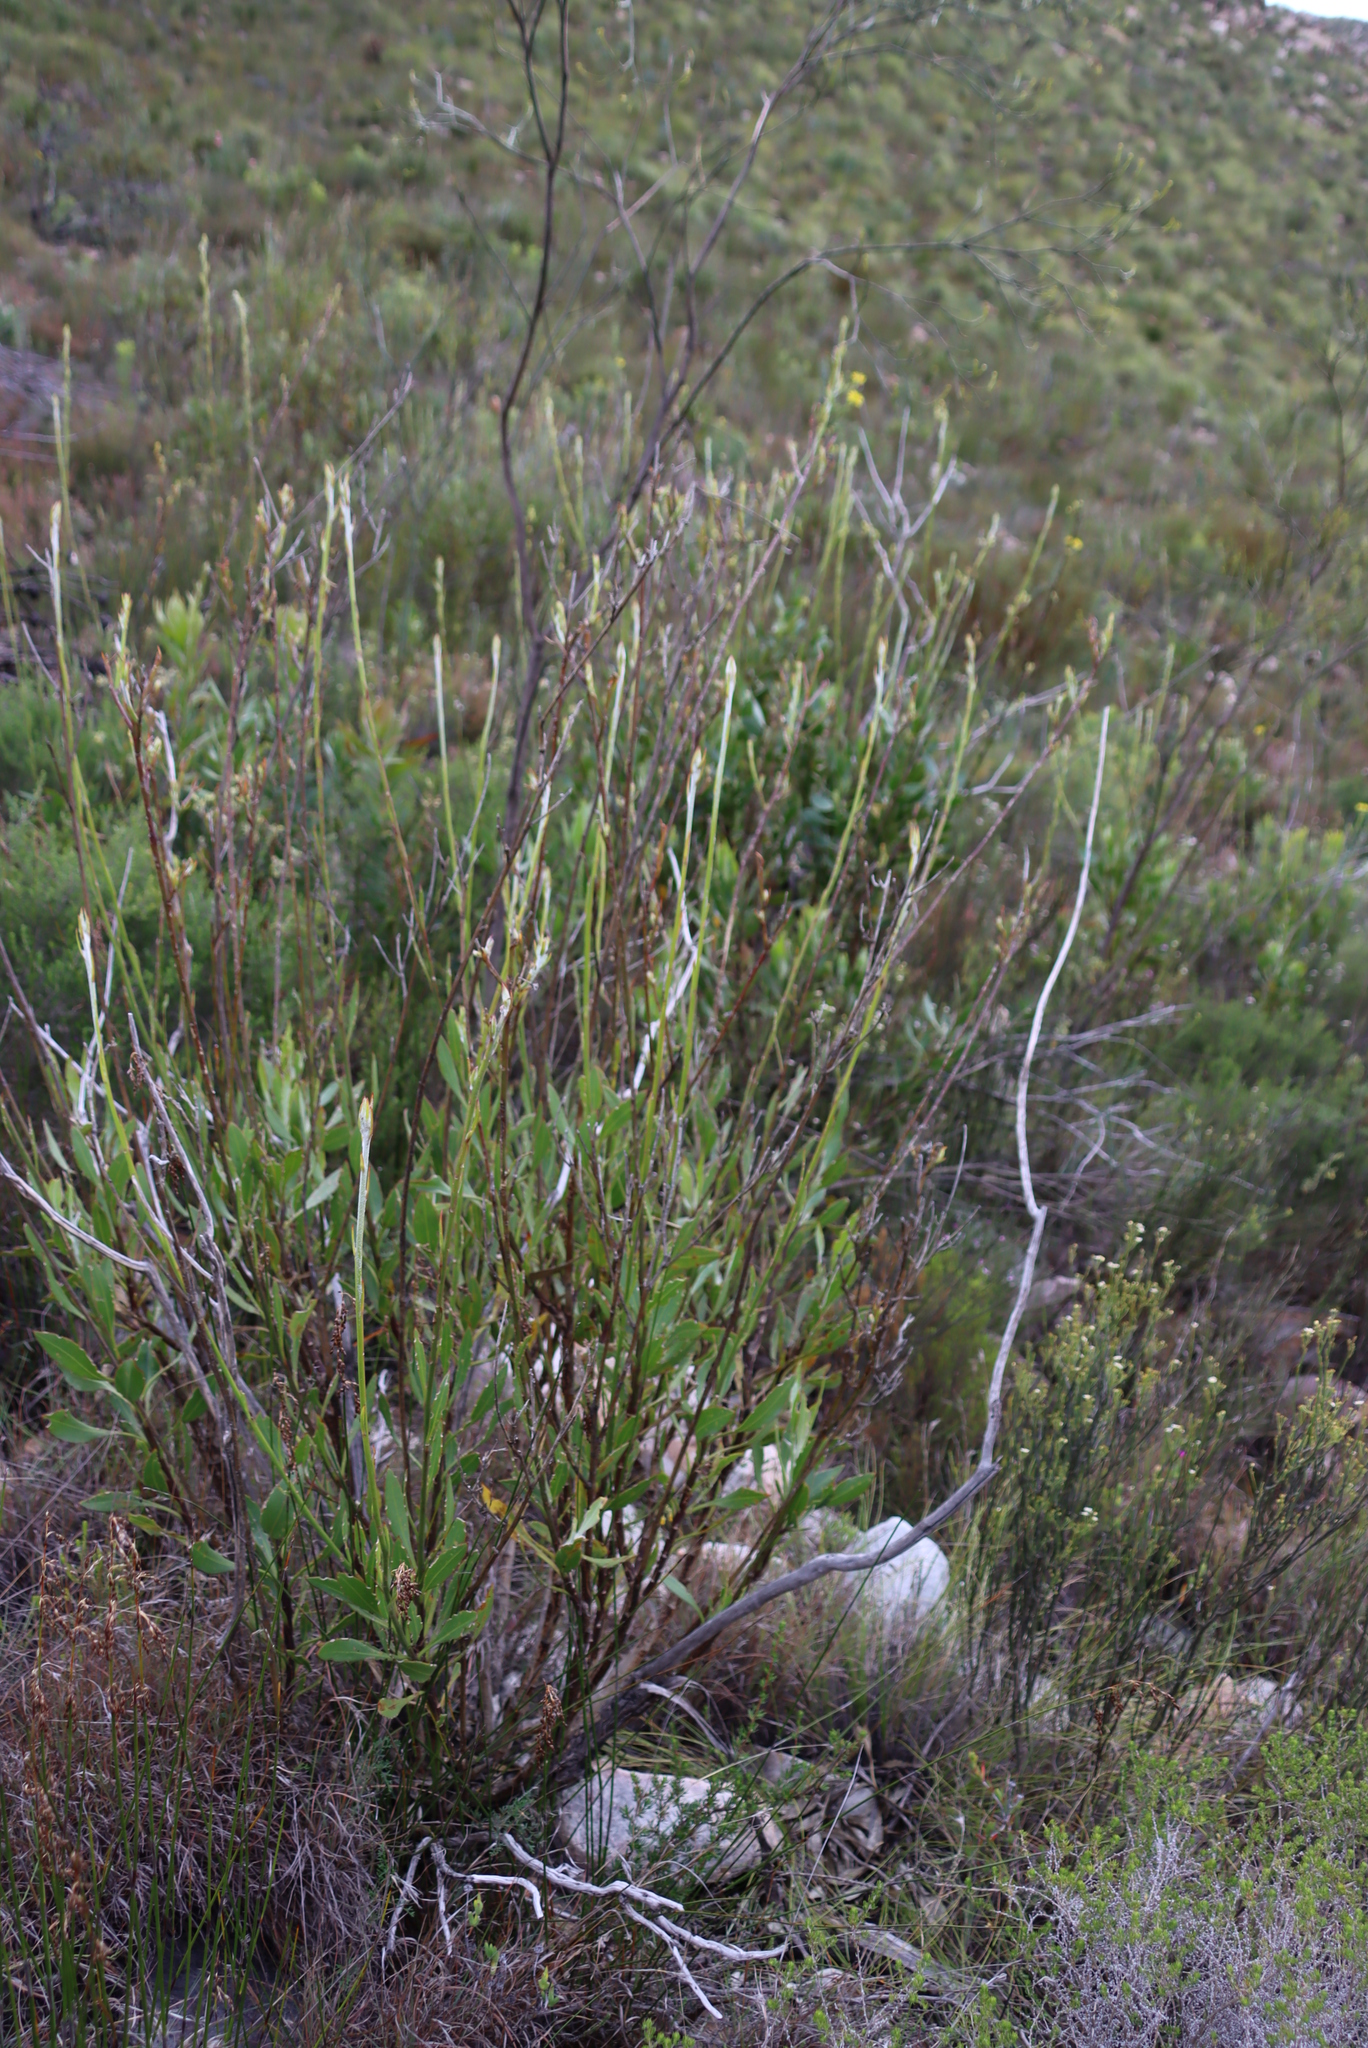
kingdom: Plantae
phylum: Tracheophyta
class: Magnoliopsida
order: Asterales
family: Asteraceae
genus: Osteospermum
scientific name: Osteospermum junceum
